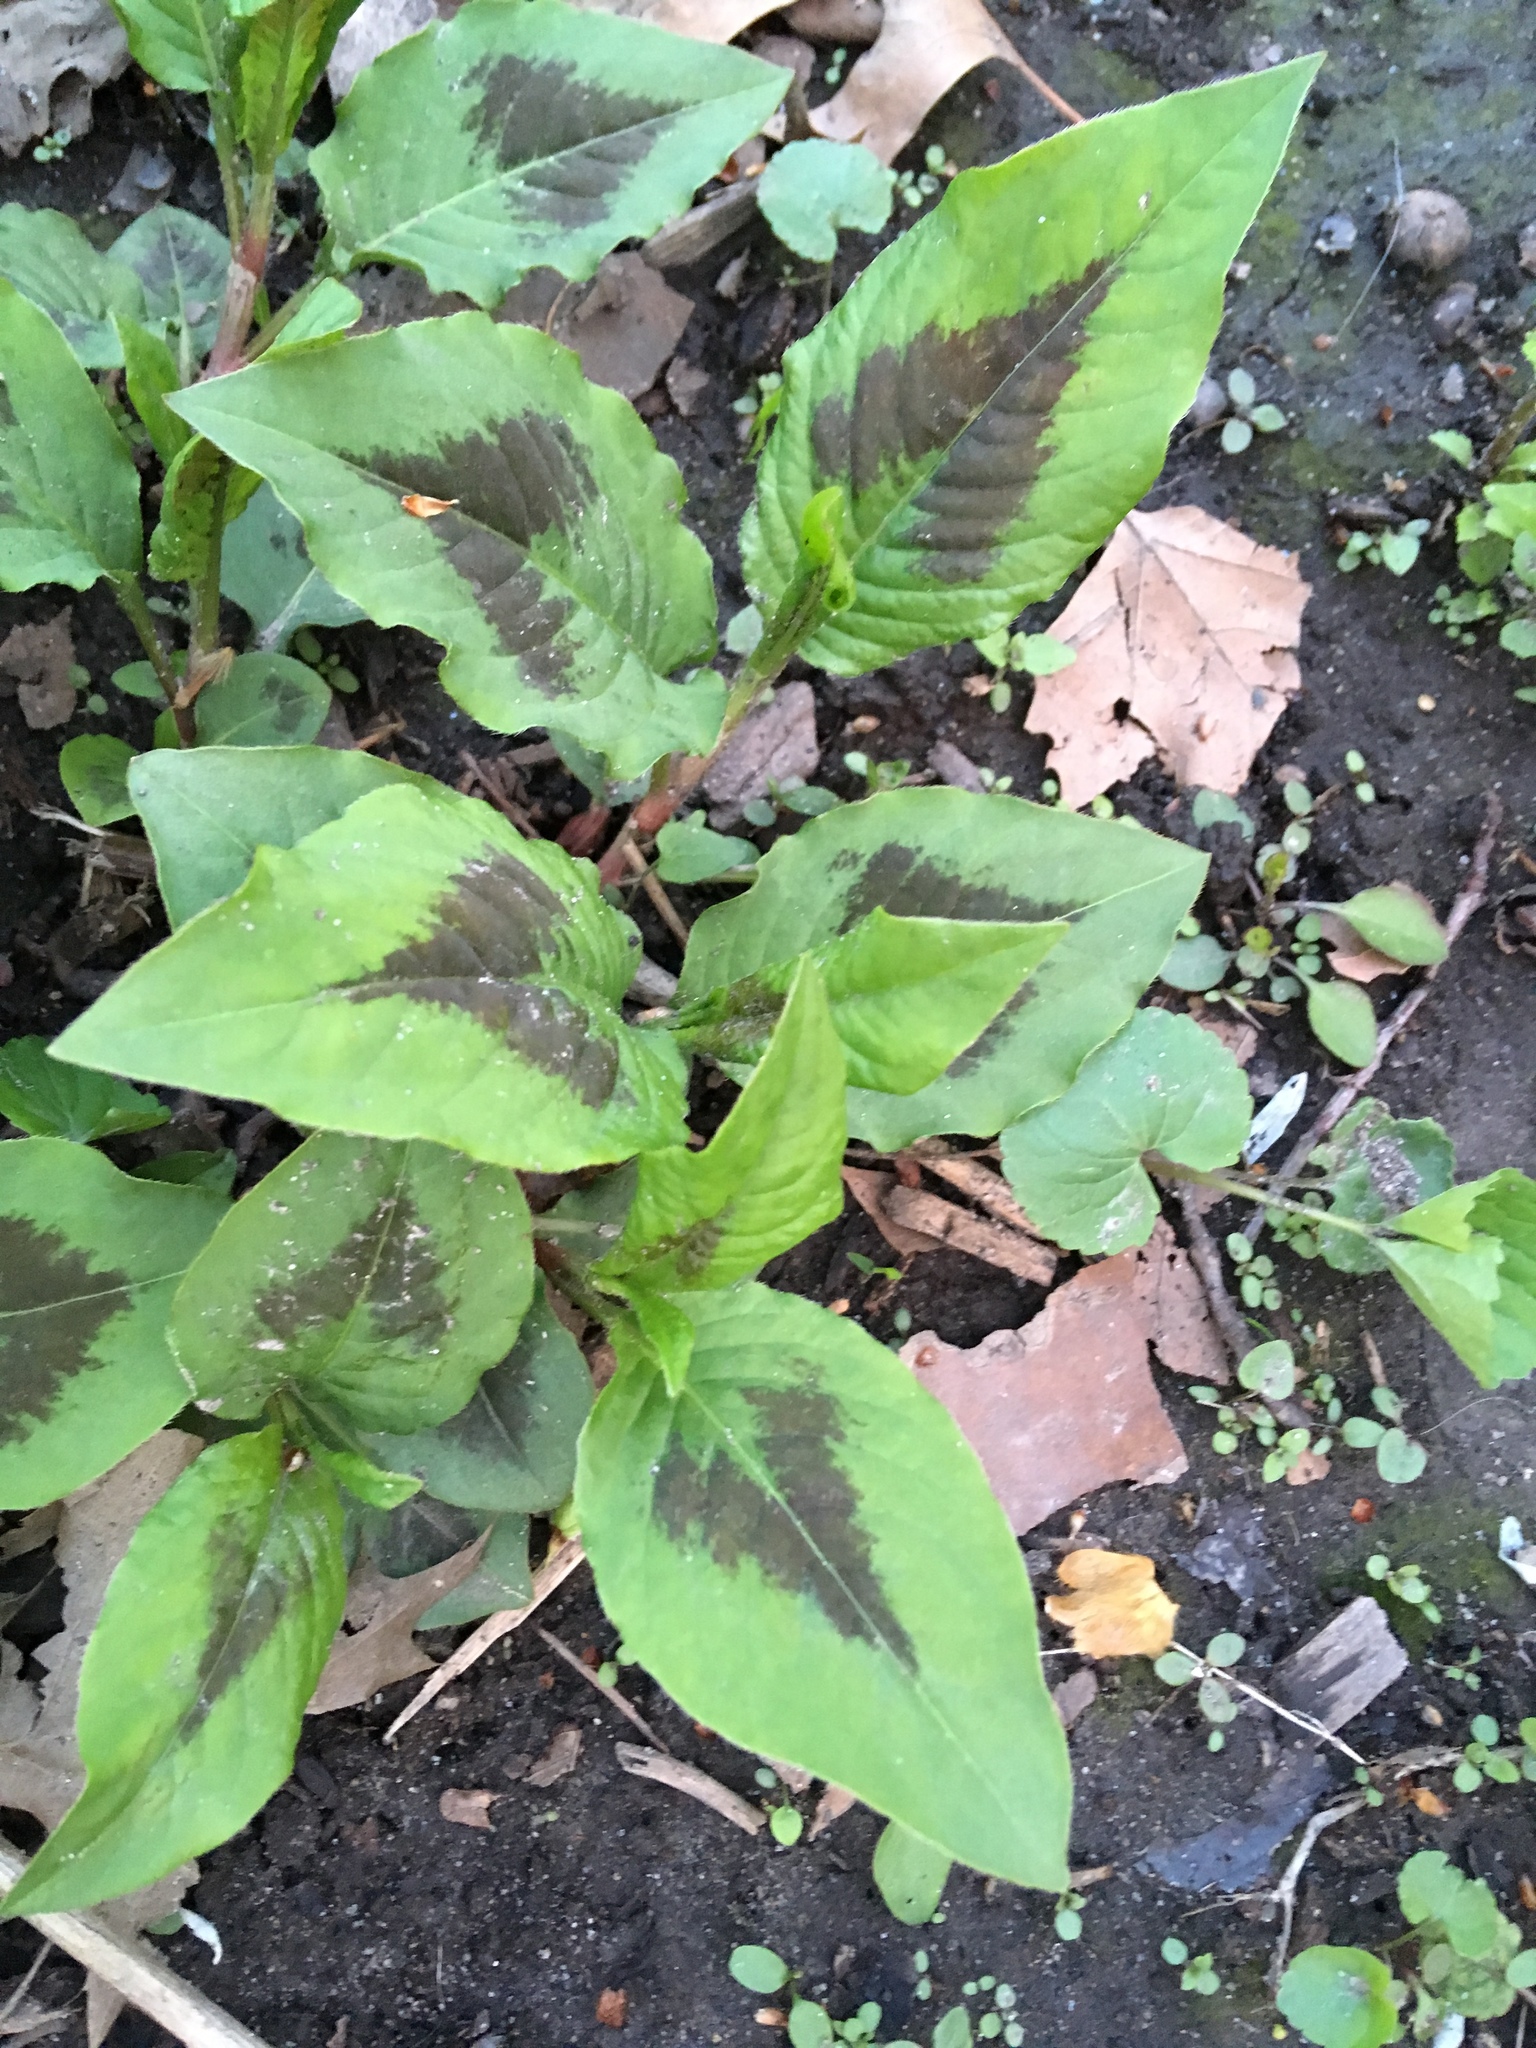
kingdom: Plantae
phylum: Tracheophyta
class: Magnoliopsida
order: Caryophyllales
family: Polygonaceae
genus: Persicaria
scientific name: Persicaria virginiana
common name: Jumpseed
